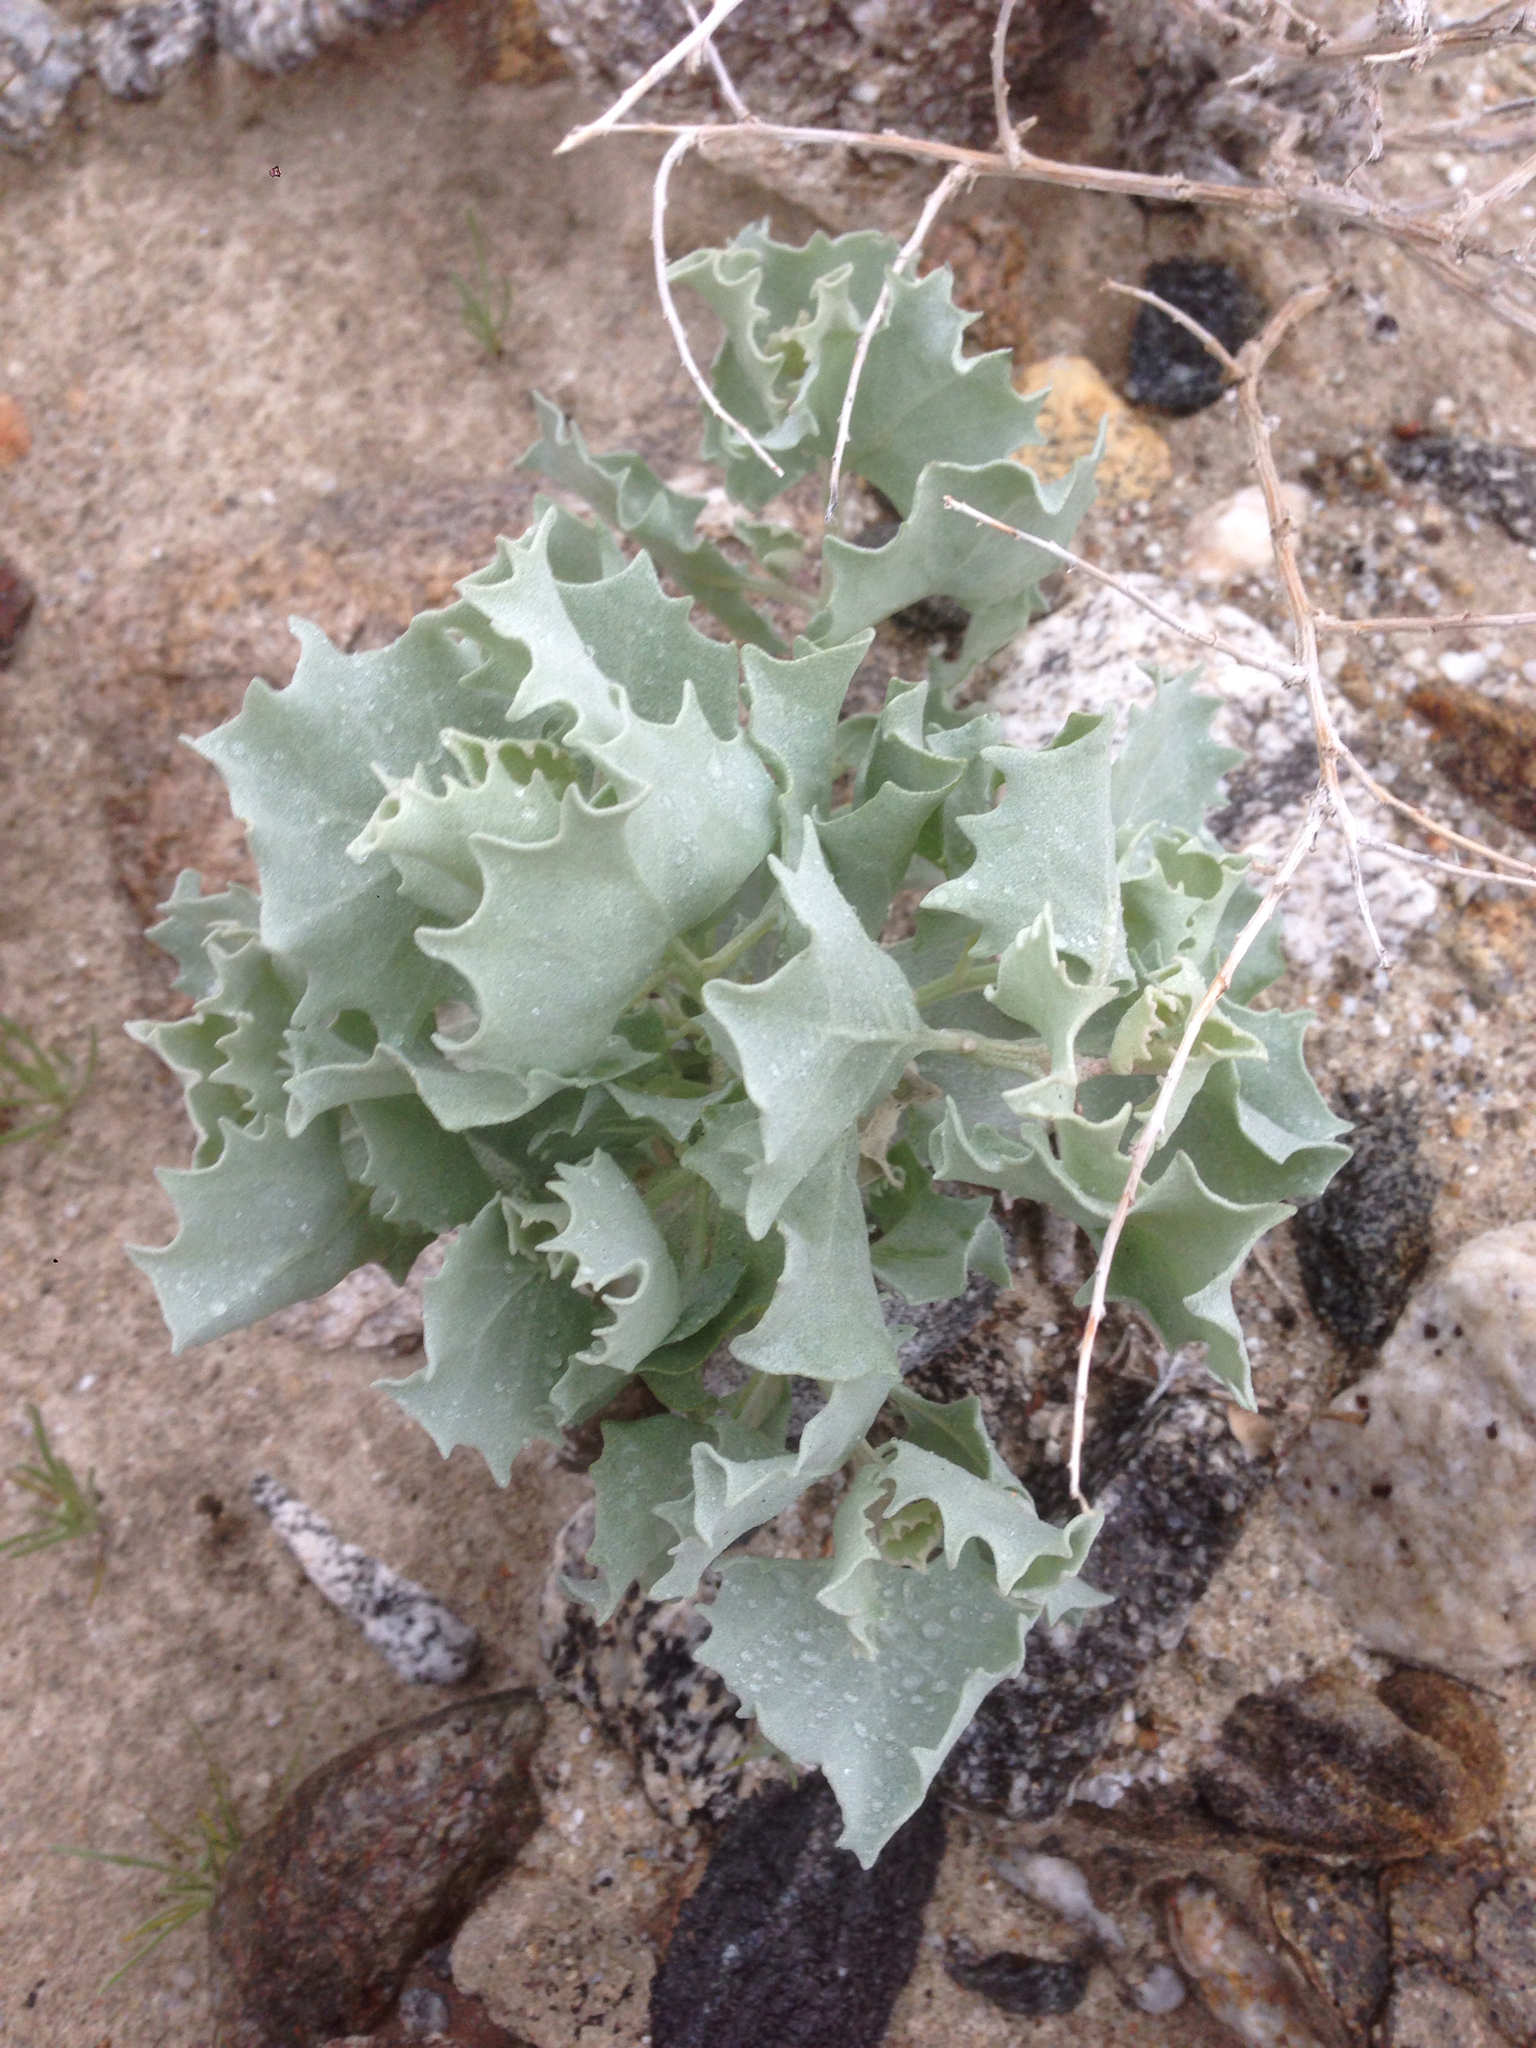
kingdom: Plantae
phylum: Tracheophyta
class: Magnoliopsida
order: Caryophyllales
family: Amaranthaceae
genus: Atriplex
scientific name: Atriplex hymenelytra
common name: Desert-holly
